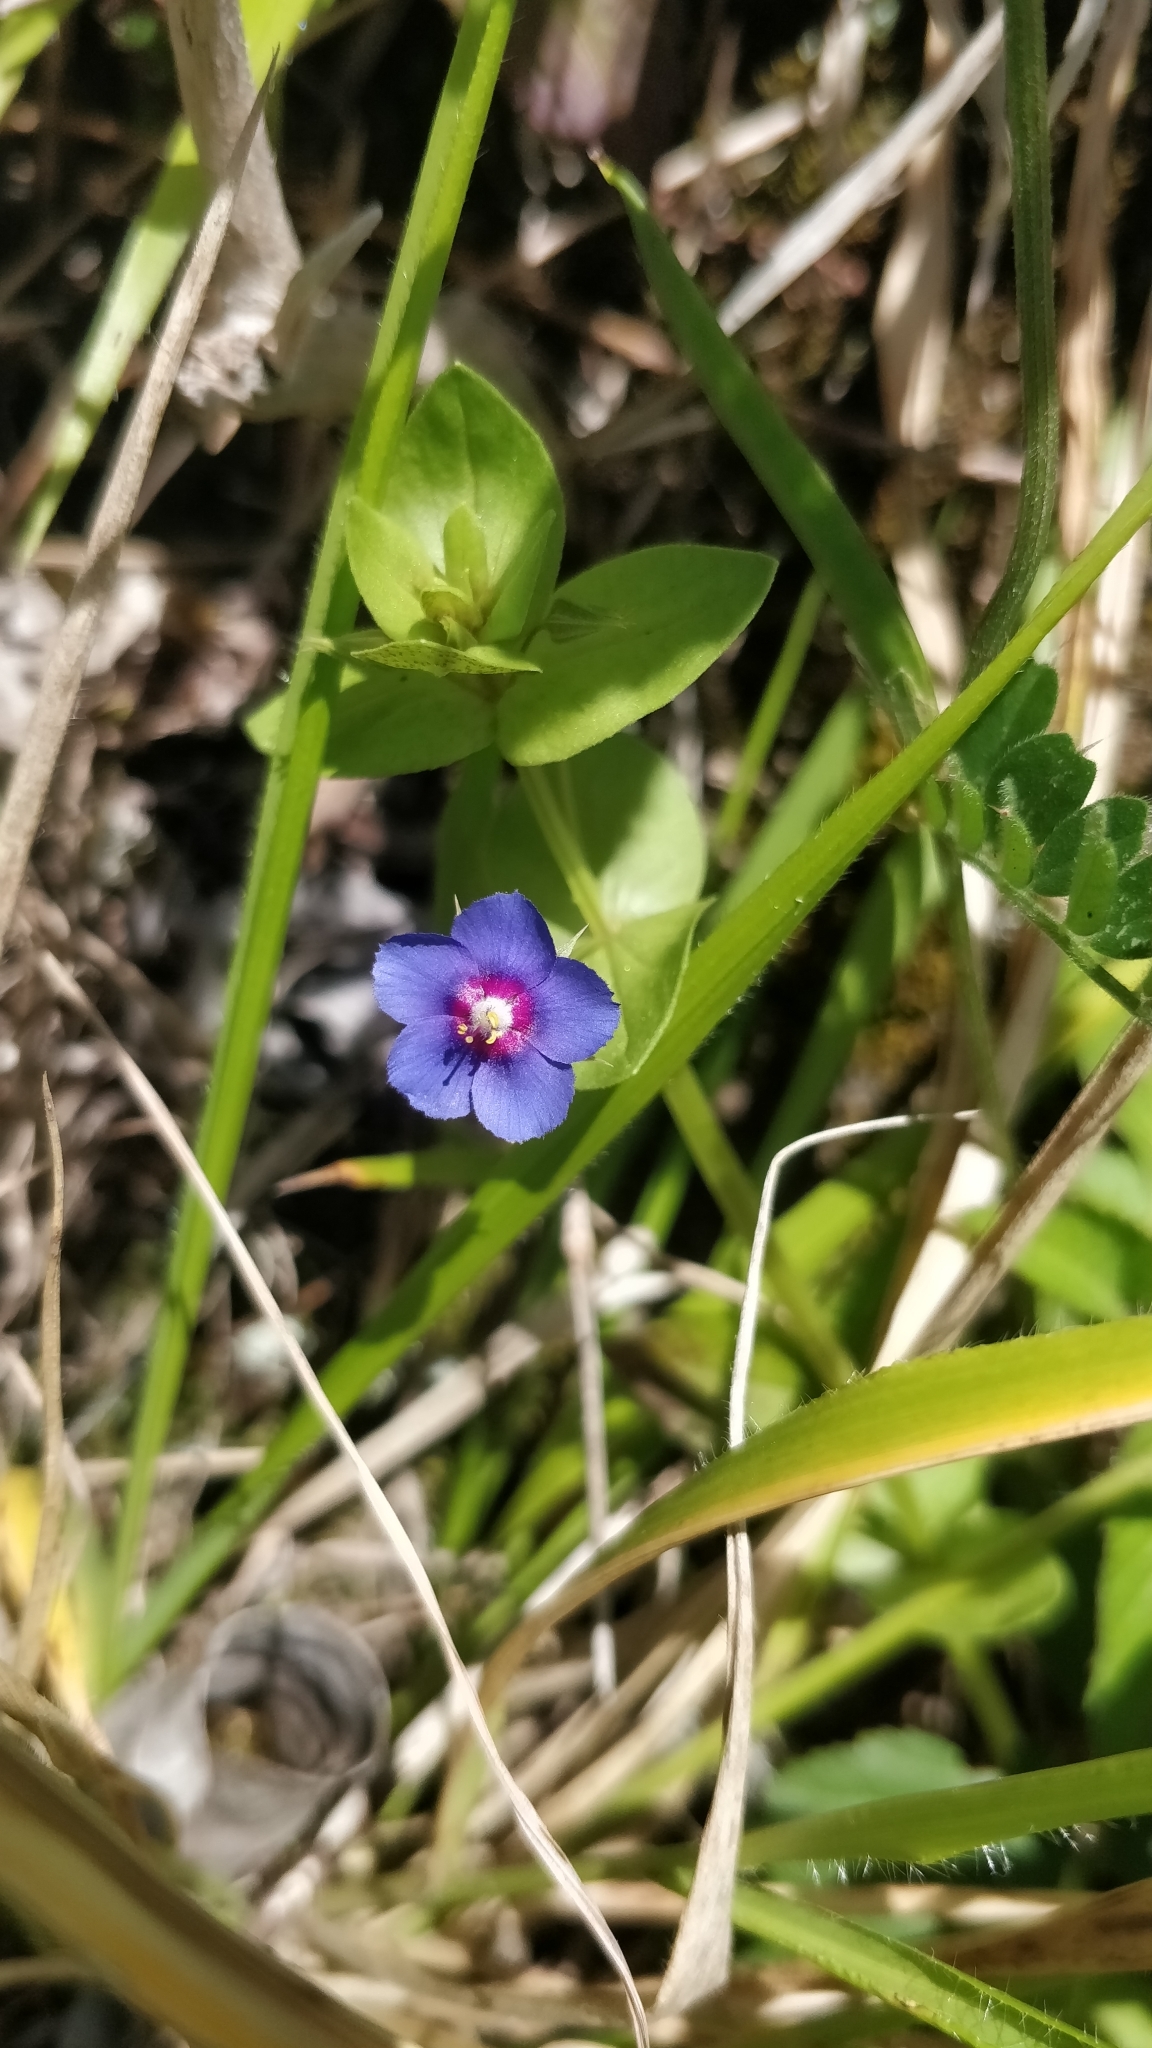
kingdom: Plantae
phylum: Tracheophyta
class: Magnoliopsida
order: Ericales
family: Primulaceae
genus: Lysimachia
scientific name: Lysimachia loeflingii
